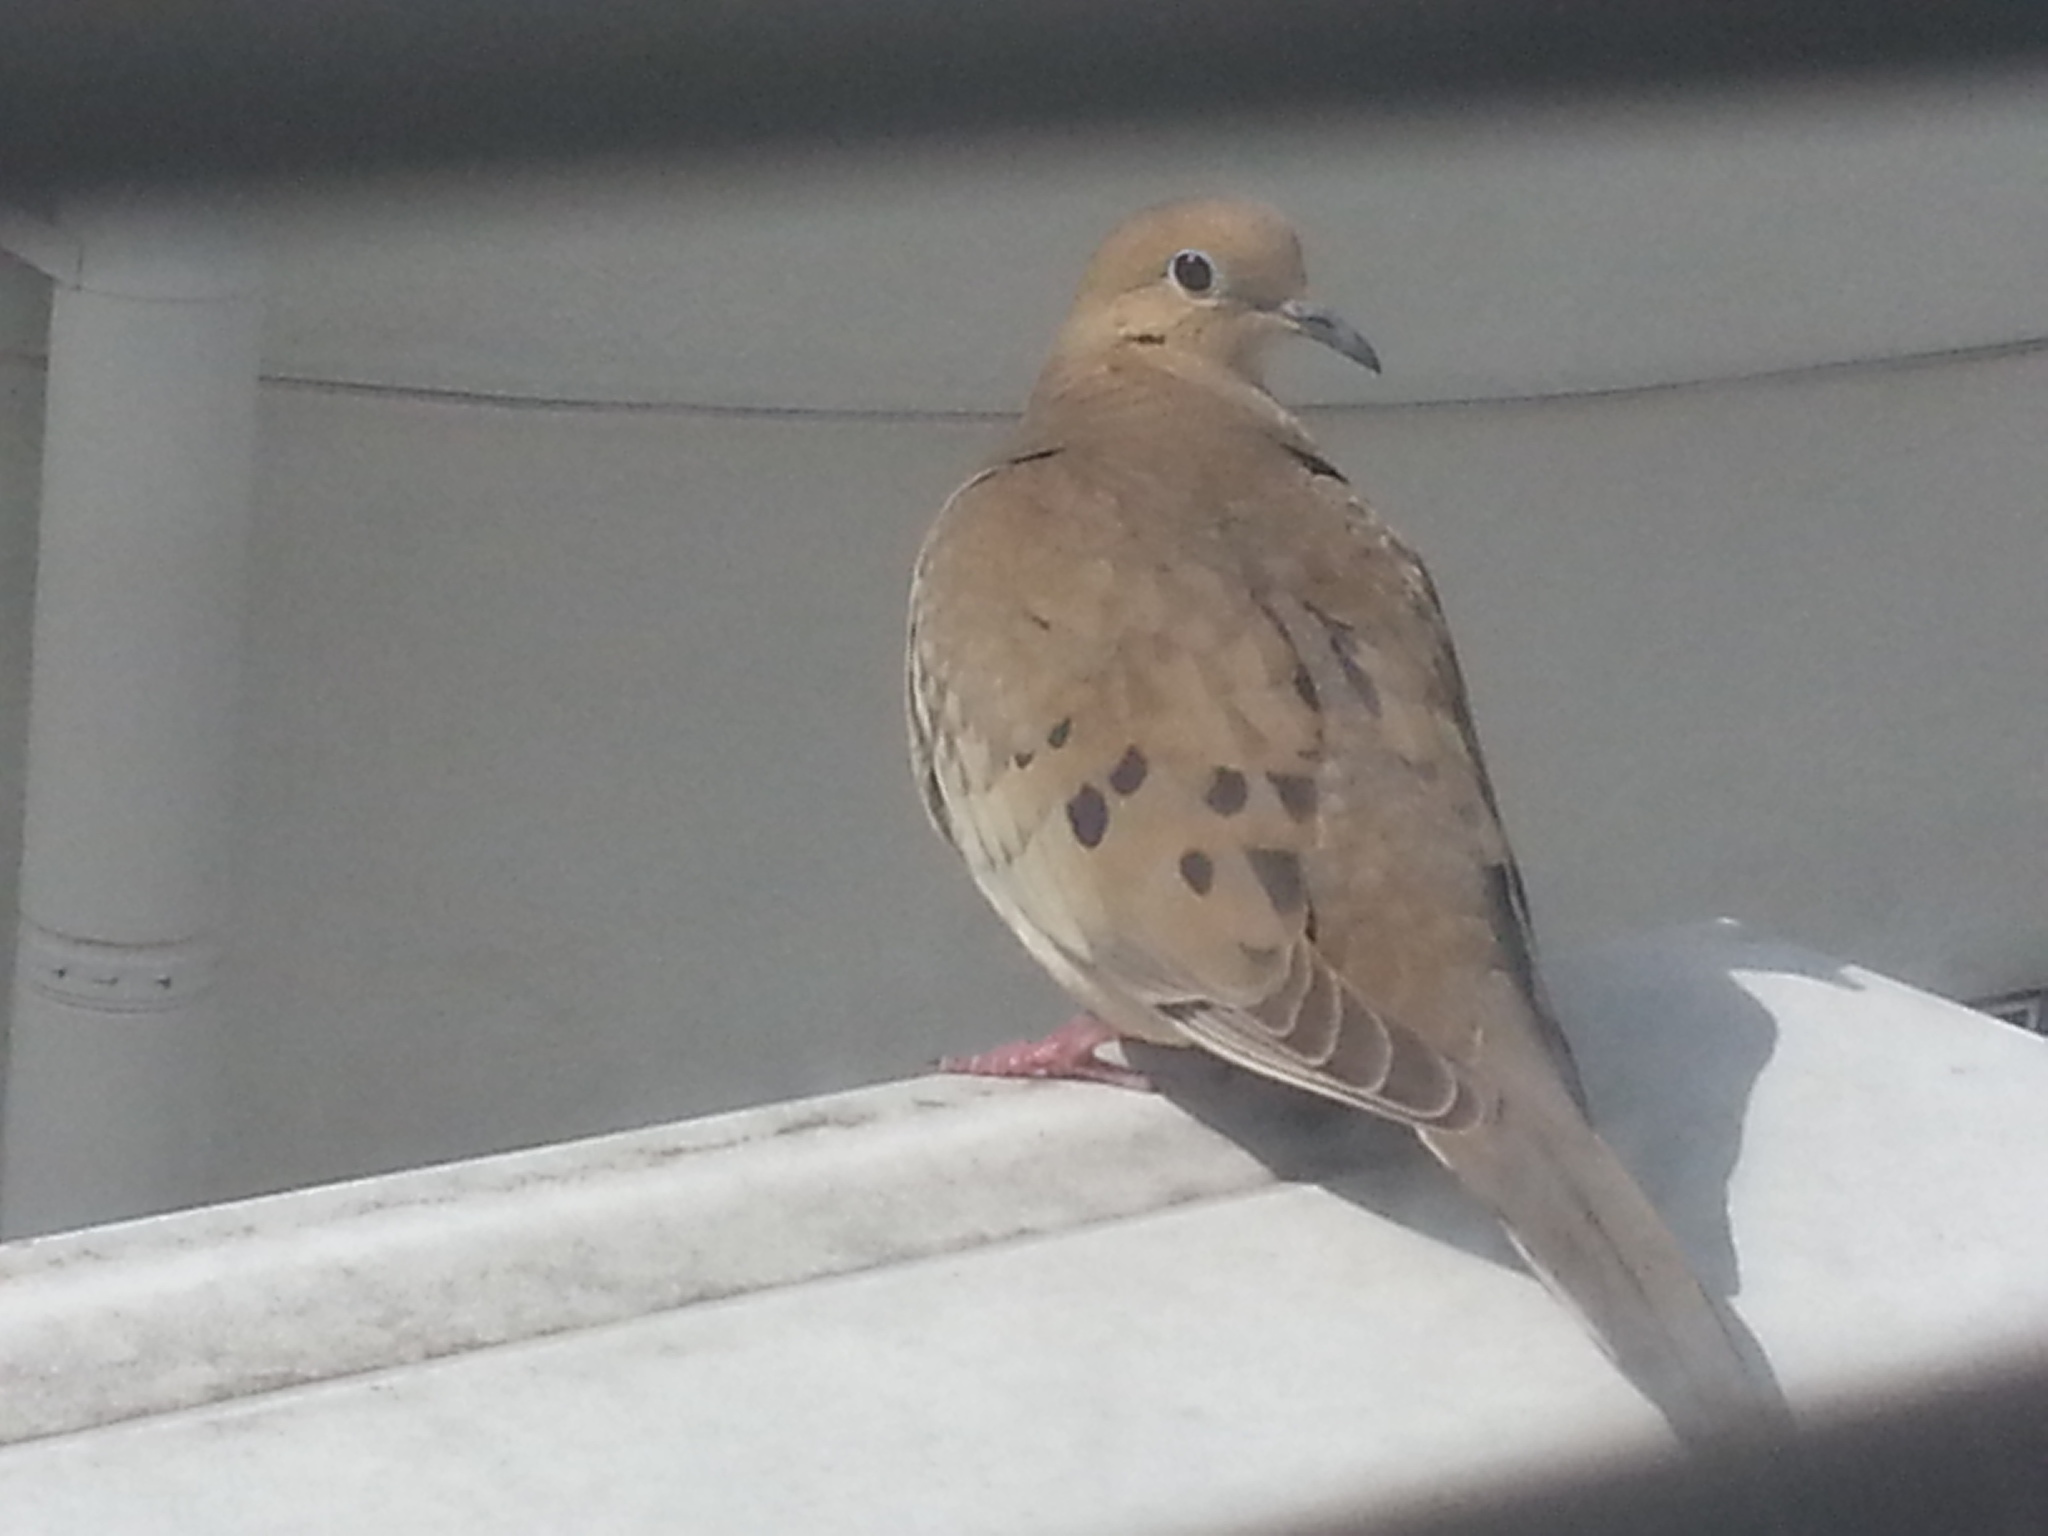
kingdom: Animalia
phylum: Chordata
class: Aves
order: Columbiformes
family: Columbidae
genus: Zenaida
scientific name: Zenaida macroura
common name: Mourning dove
